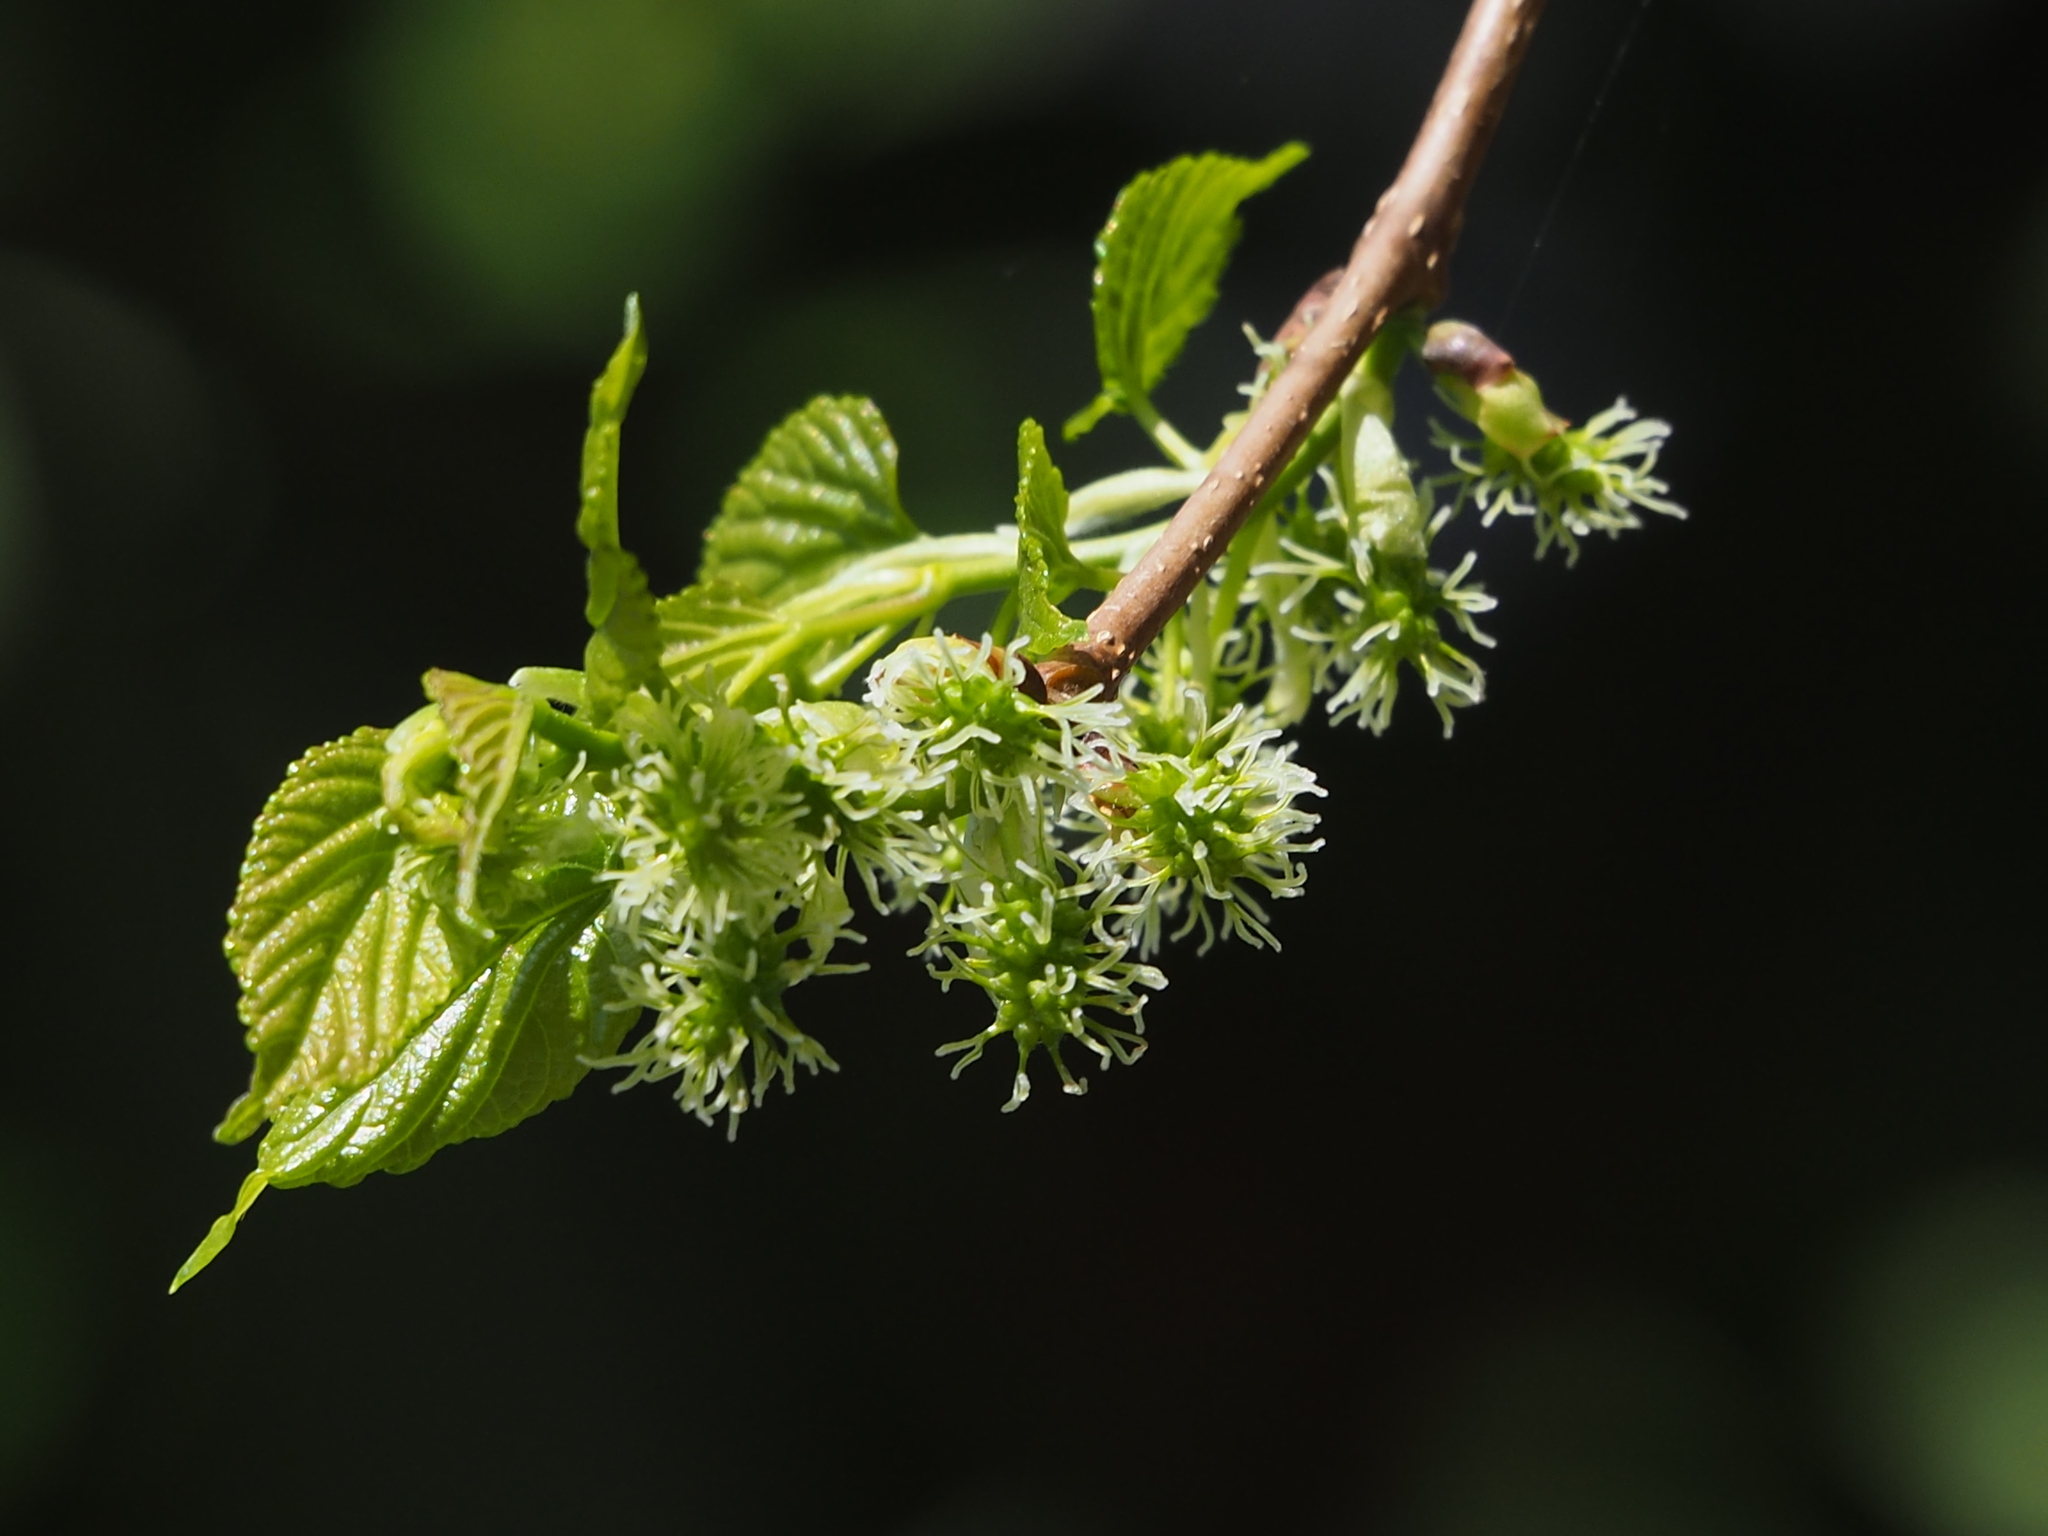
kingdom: Plantae
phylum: Tracheophyta
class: Magnoliopsida
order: Rosales
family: Moraceae
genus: Morus
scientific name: Morus indica
